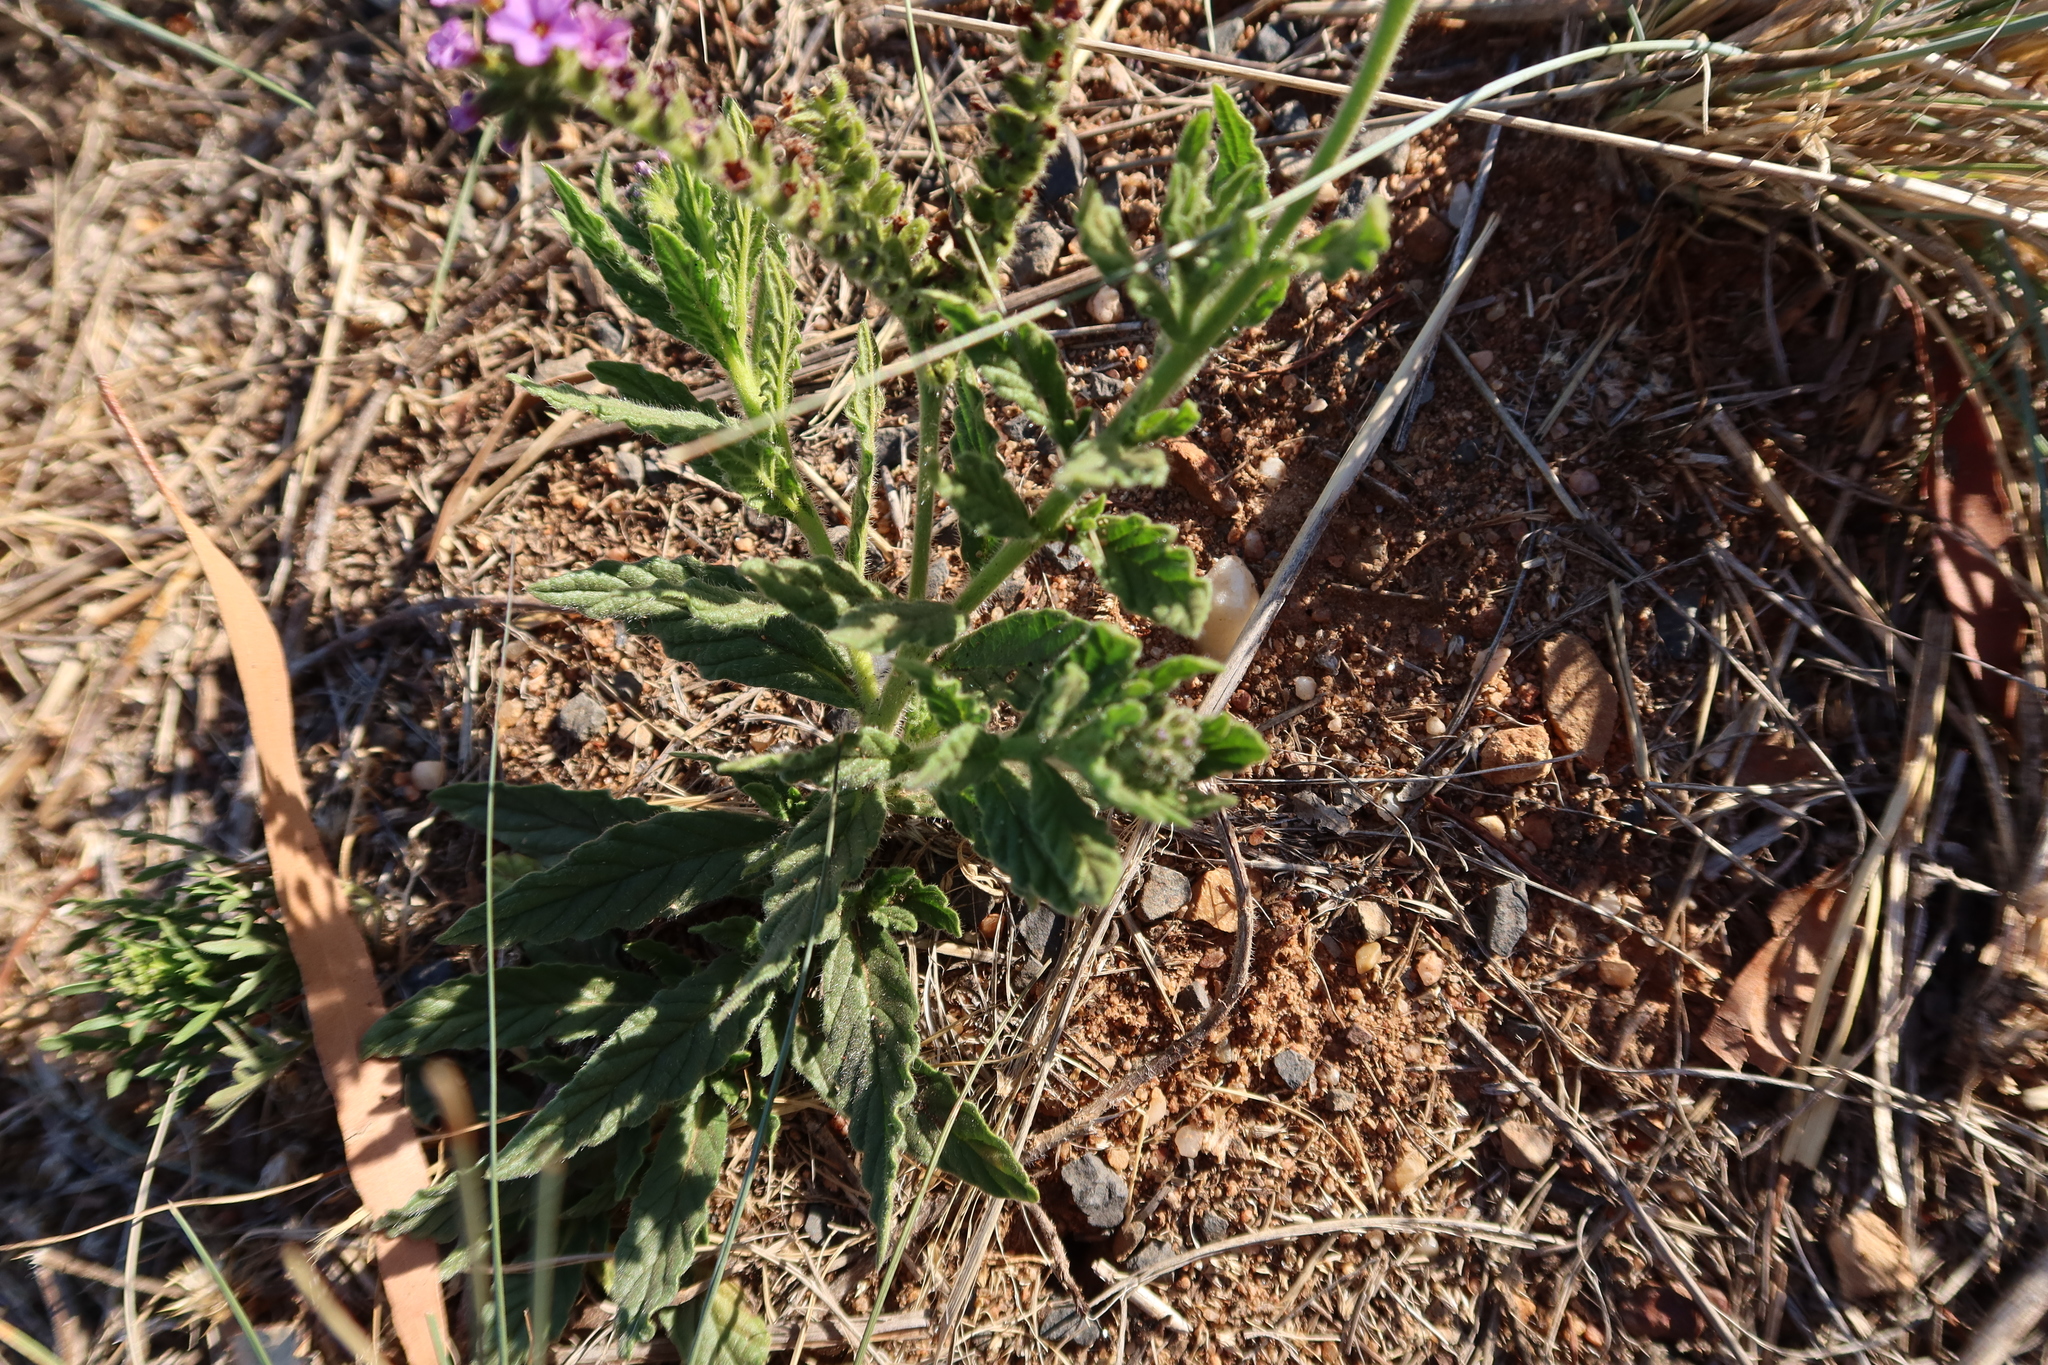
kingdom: Plantae
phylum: Tracheophyta
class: Magnoliopsida
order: Boraginales
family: Heliotropiaceae
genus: Heliotropium
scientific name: Heliotropium amplexicaule
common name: Clasping heliotrope
